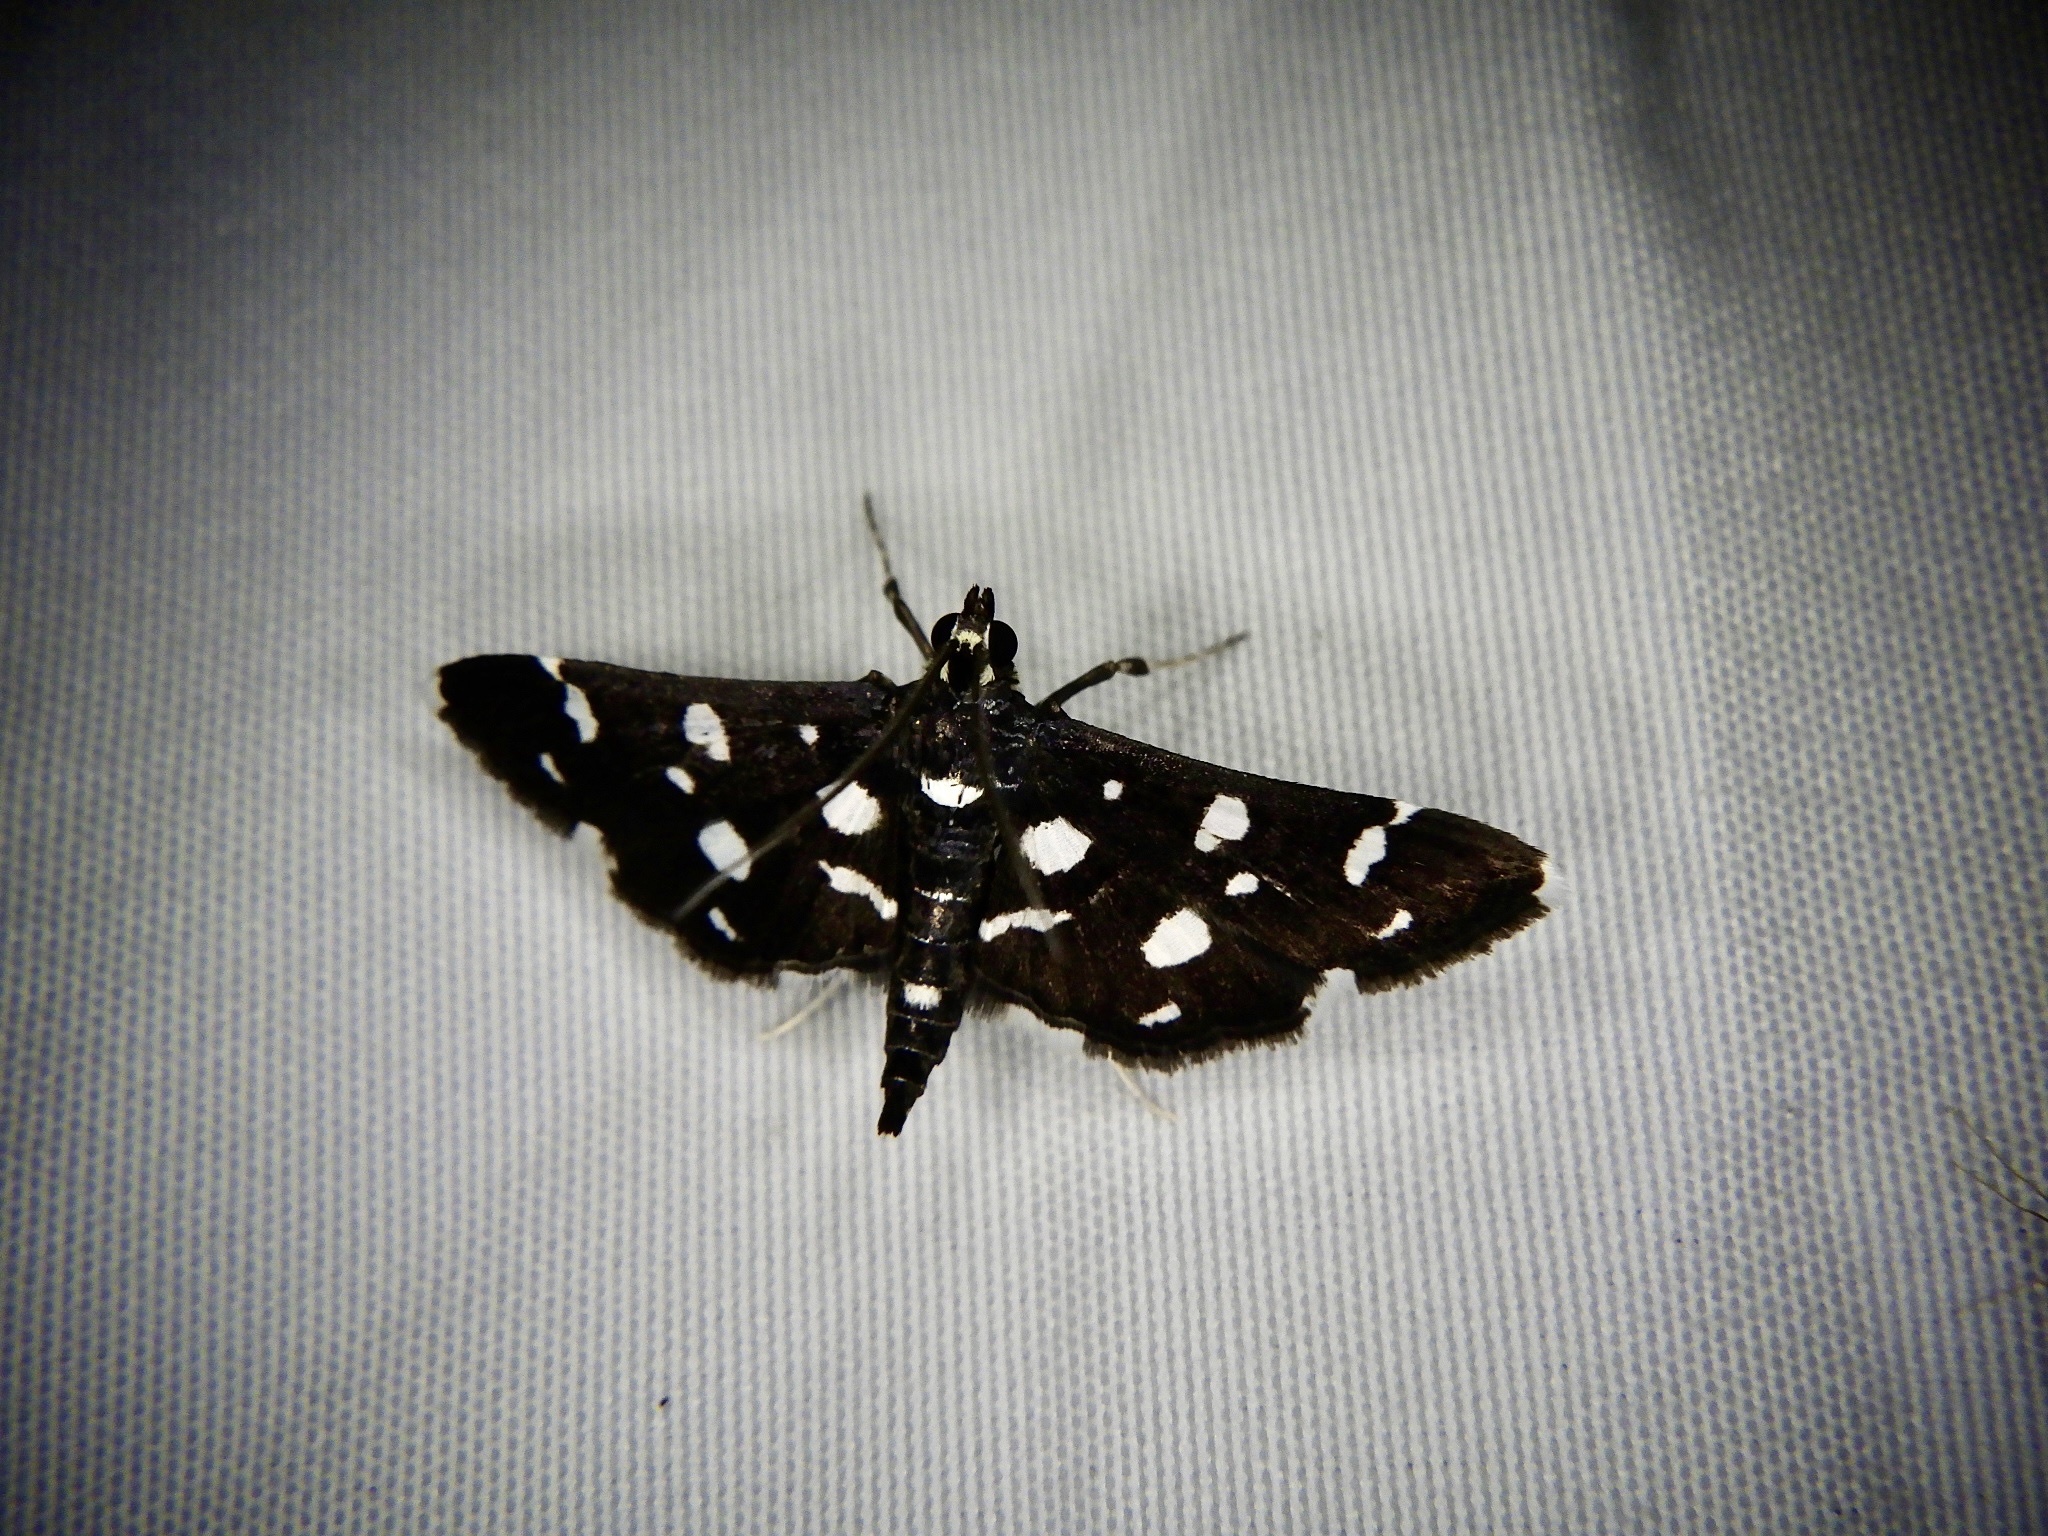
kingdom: Animalia
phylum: Arthropoda
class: Insecta
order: Lepidoptera
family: Crambidae
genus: Bocchoris
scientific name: Bocchoris inspersalis
